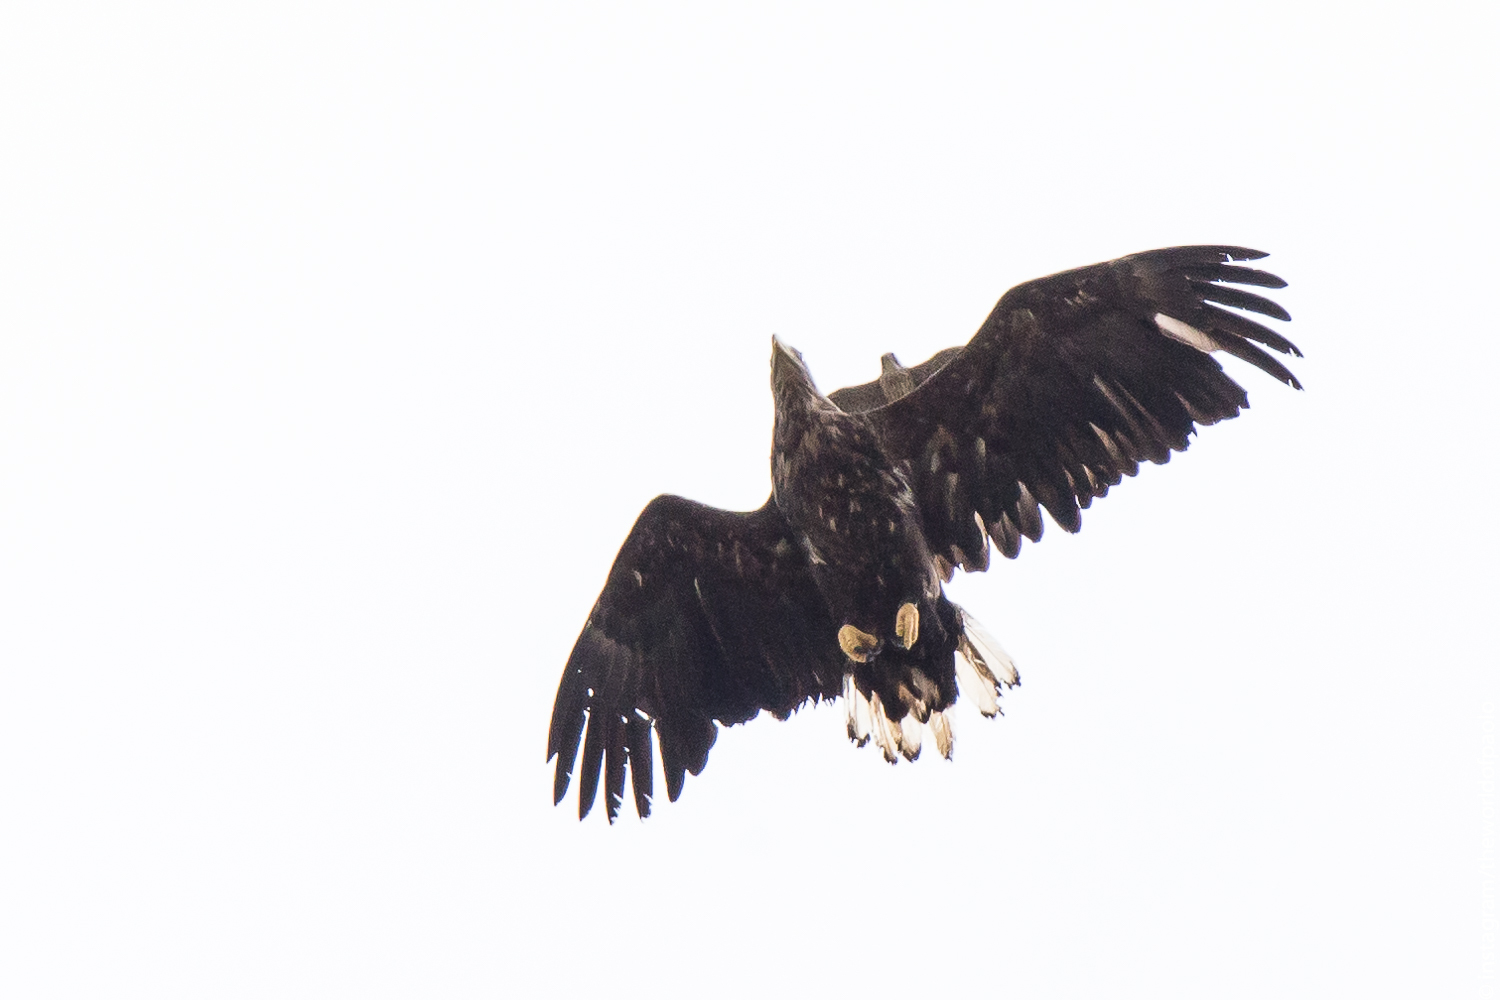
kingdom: Animalia
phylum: Chordata
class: Aves
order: Accipitriformes
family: Accipitridae
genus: Haliaeetus
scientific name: Haliaeetus albicilla
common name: White-tailed eagle
